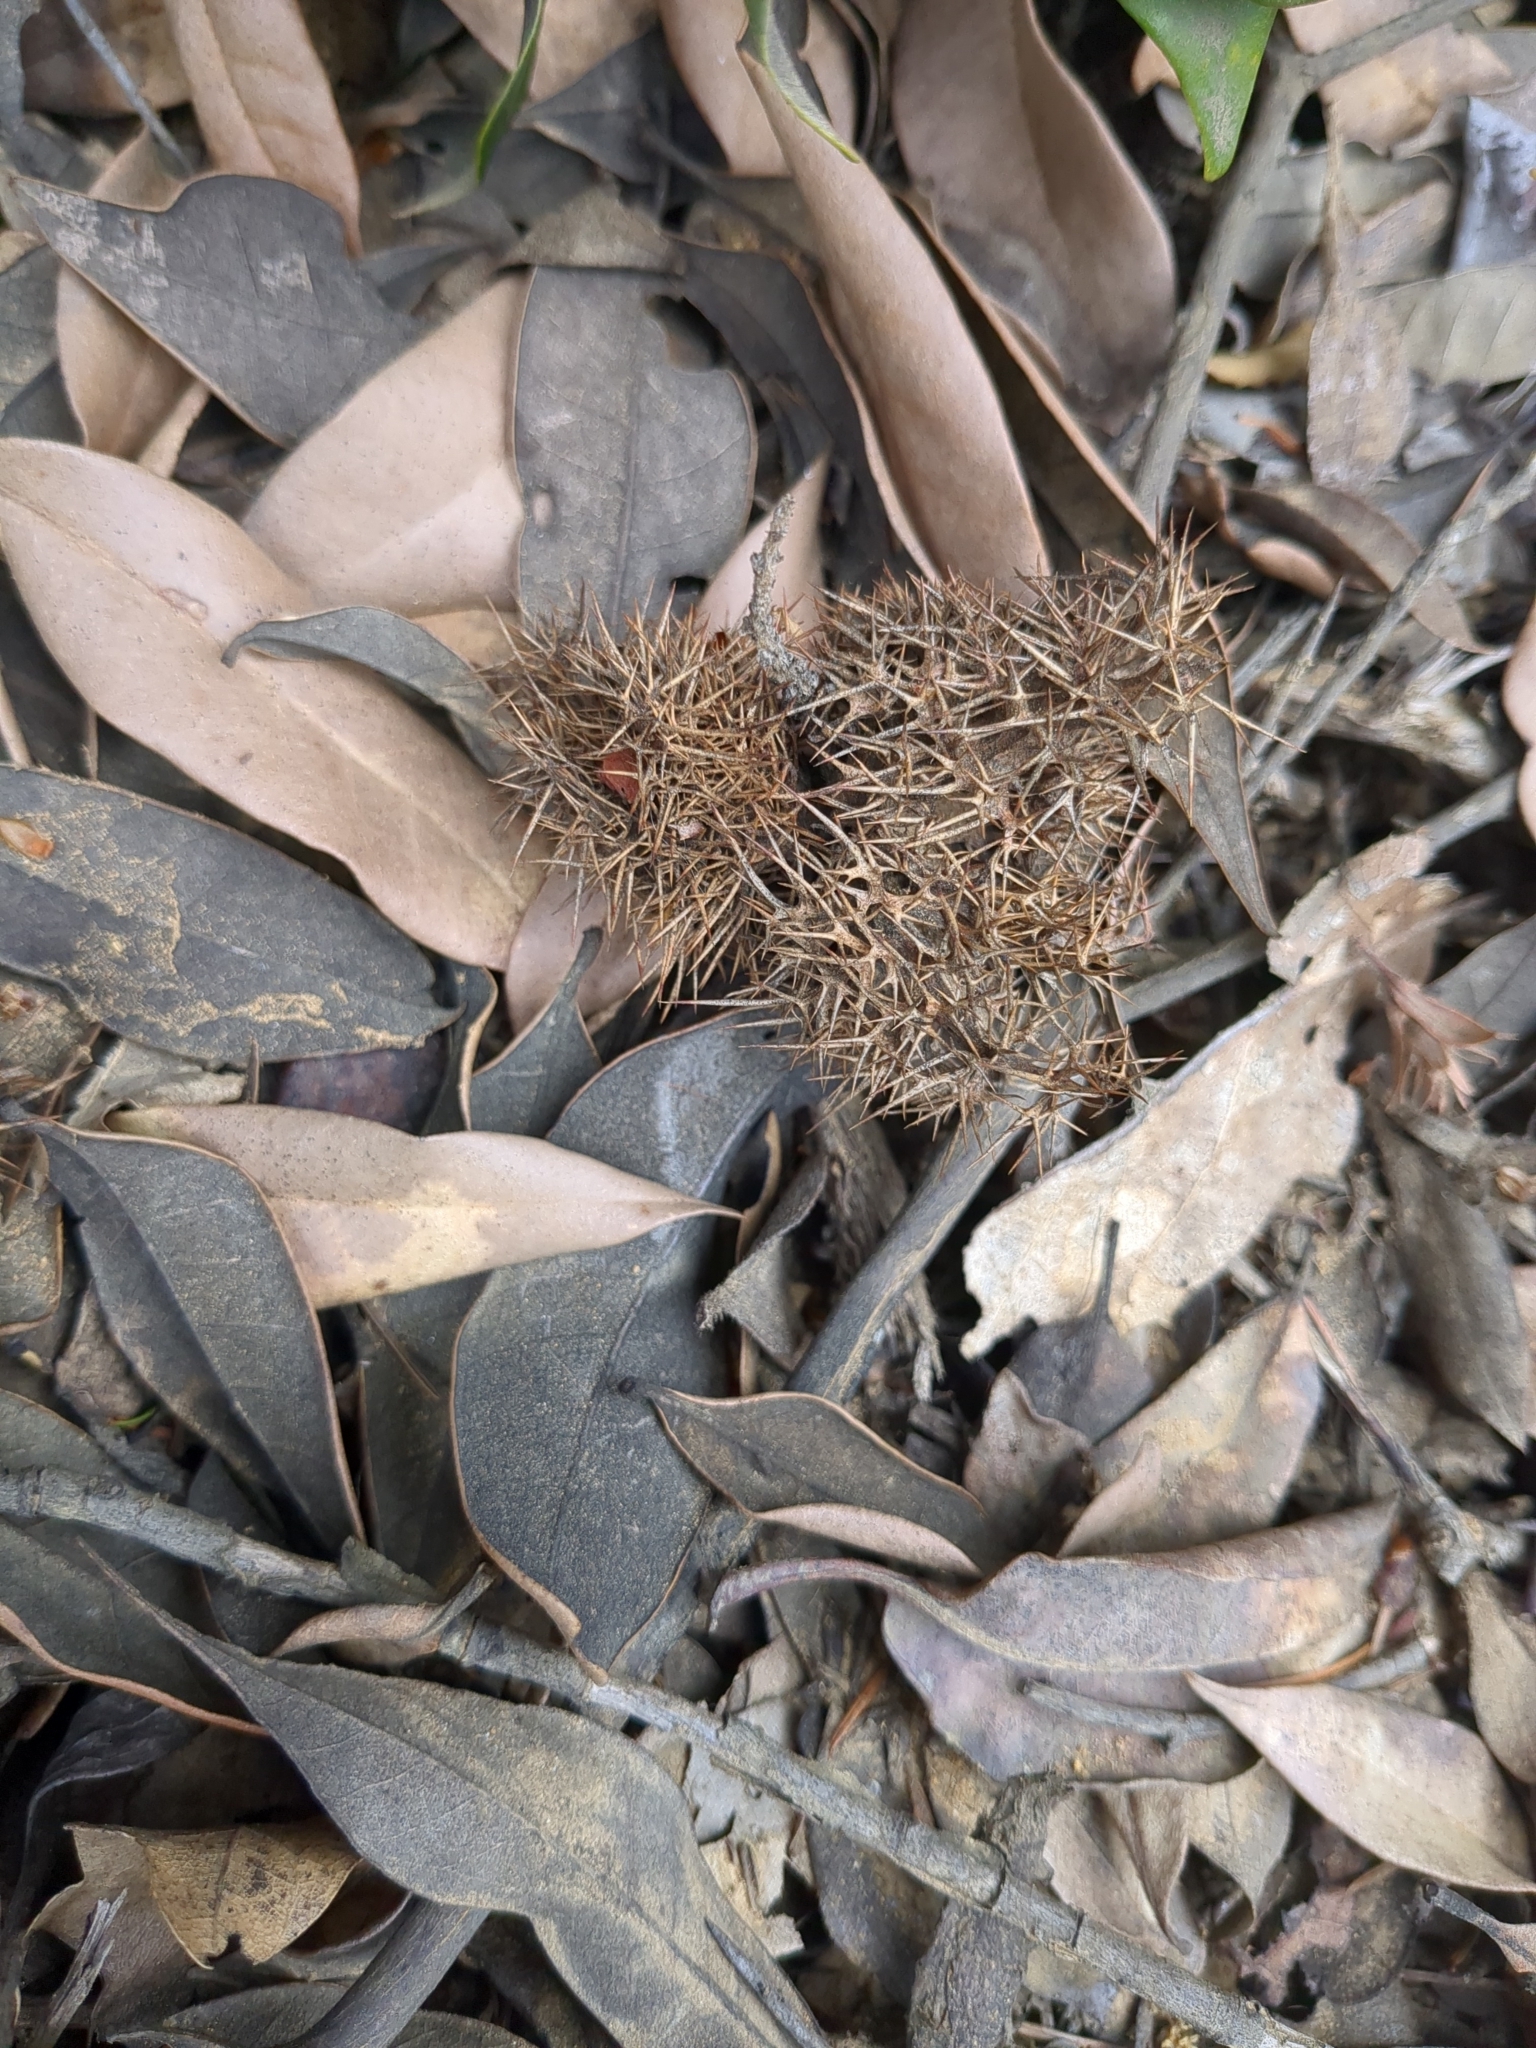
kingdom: Plantae
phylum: Tracheophyta
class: Magnoliopsida
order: Fagales
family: Fagaceae
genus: Chrysolepis
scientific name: Chrysolepis chrysophylla
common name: Giant chinquapin
